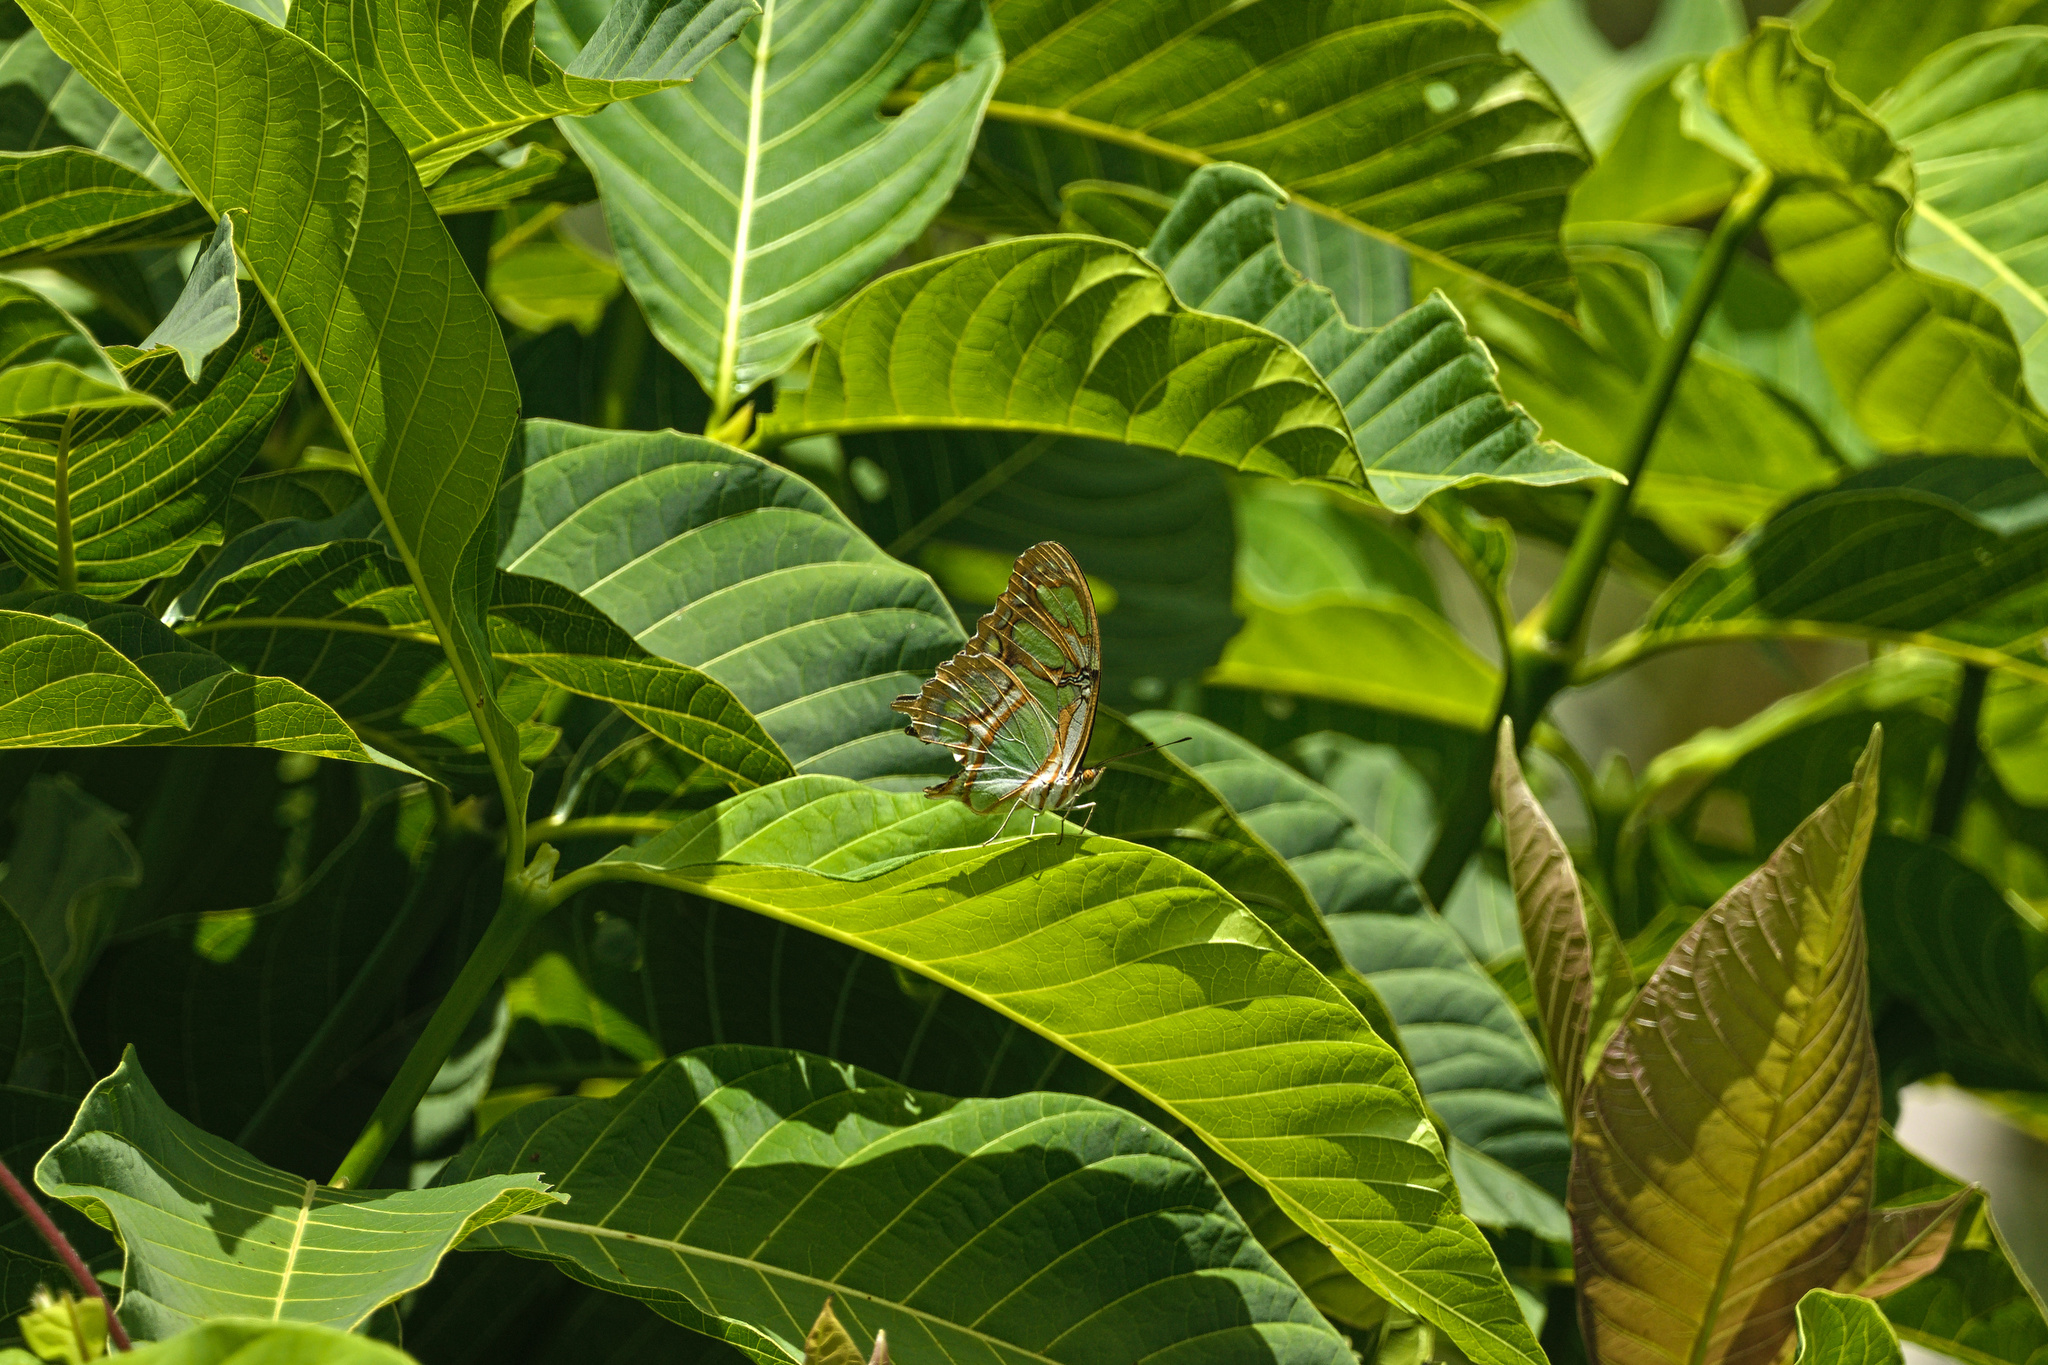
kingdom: Animalia
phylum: Arthropoda
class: Insecta
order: Lepidoptera
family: Nymphalidae
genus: Siproeta
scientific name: Siproeta stelenes
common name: Malachite
